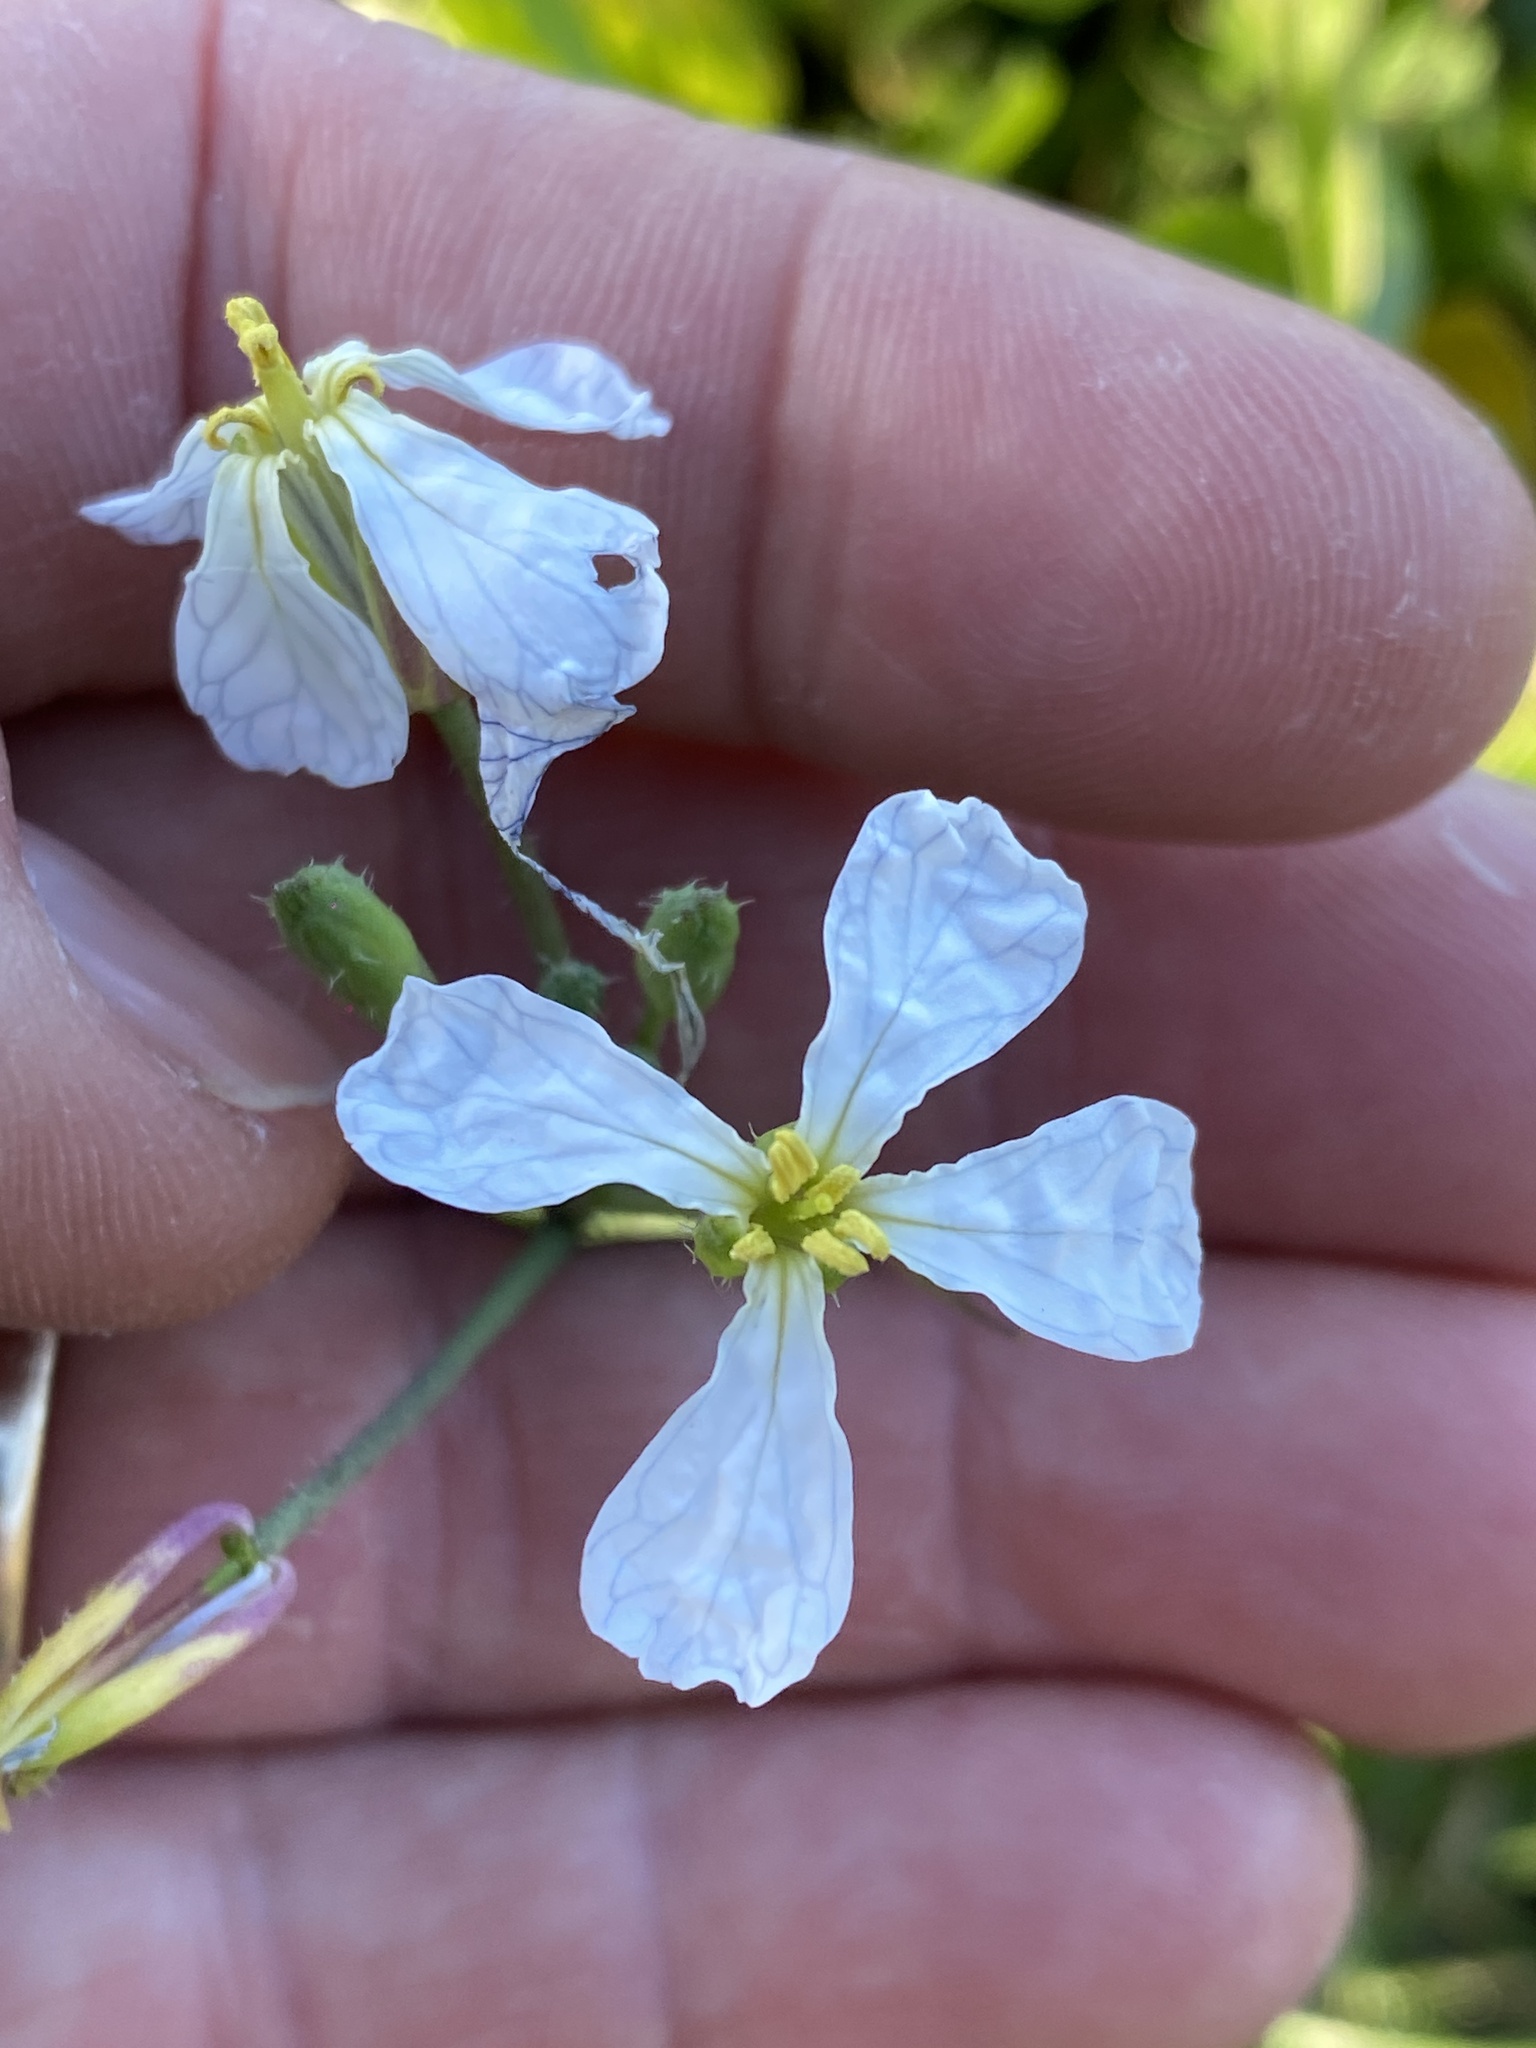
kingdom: Plantae
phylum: Tracheophyta
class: Magnoliopsida
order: Brassicales
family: Brassicaceae
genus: Raphanus
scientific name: Raphanus raphanistrum
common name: Wild radish
